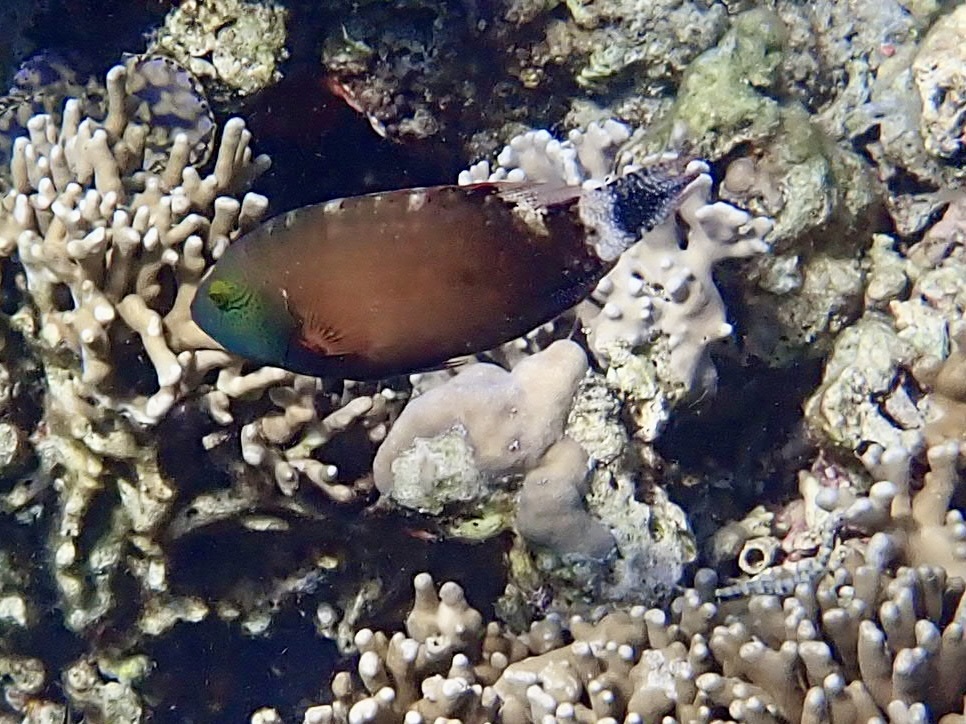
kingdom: Animalia
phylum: Chordata
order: Perciformes
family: Labridae
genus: Cheilinus
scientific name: Cheilinus chlorourus
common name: Floral wrasse
